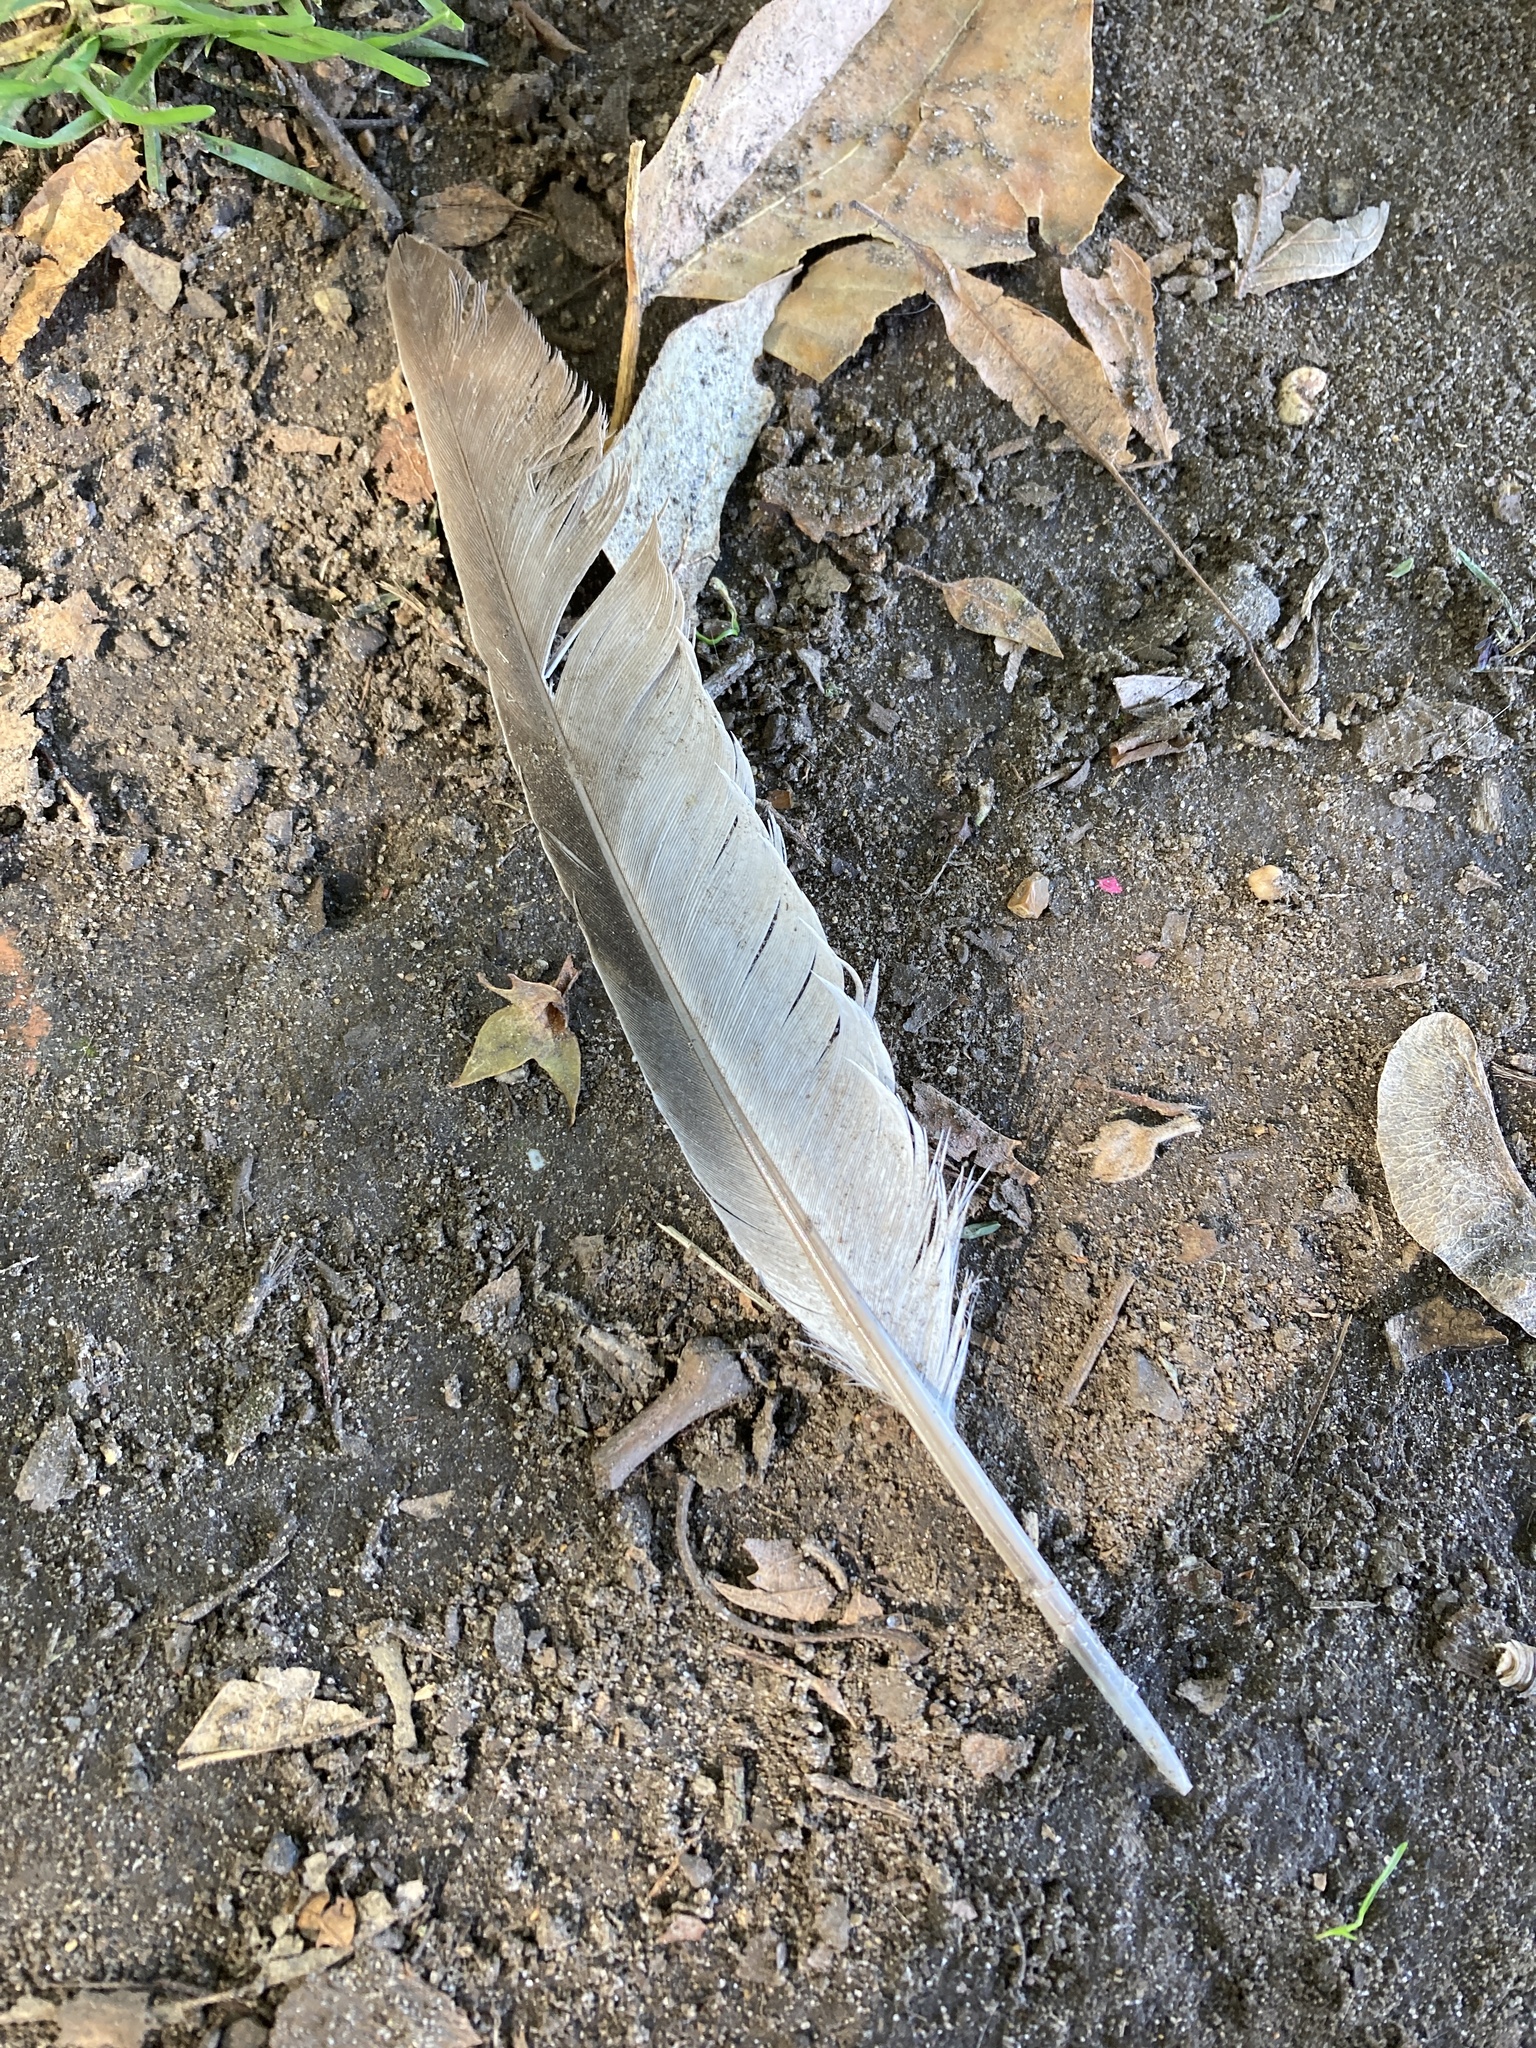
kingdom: Animalia
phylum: Chordata
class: Aves
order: Columbiformes
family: Columbidae
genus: Columba
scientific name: Columba livia
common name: Rock pigeon
